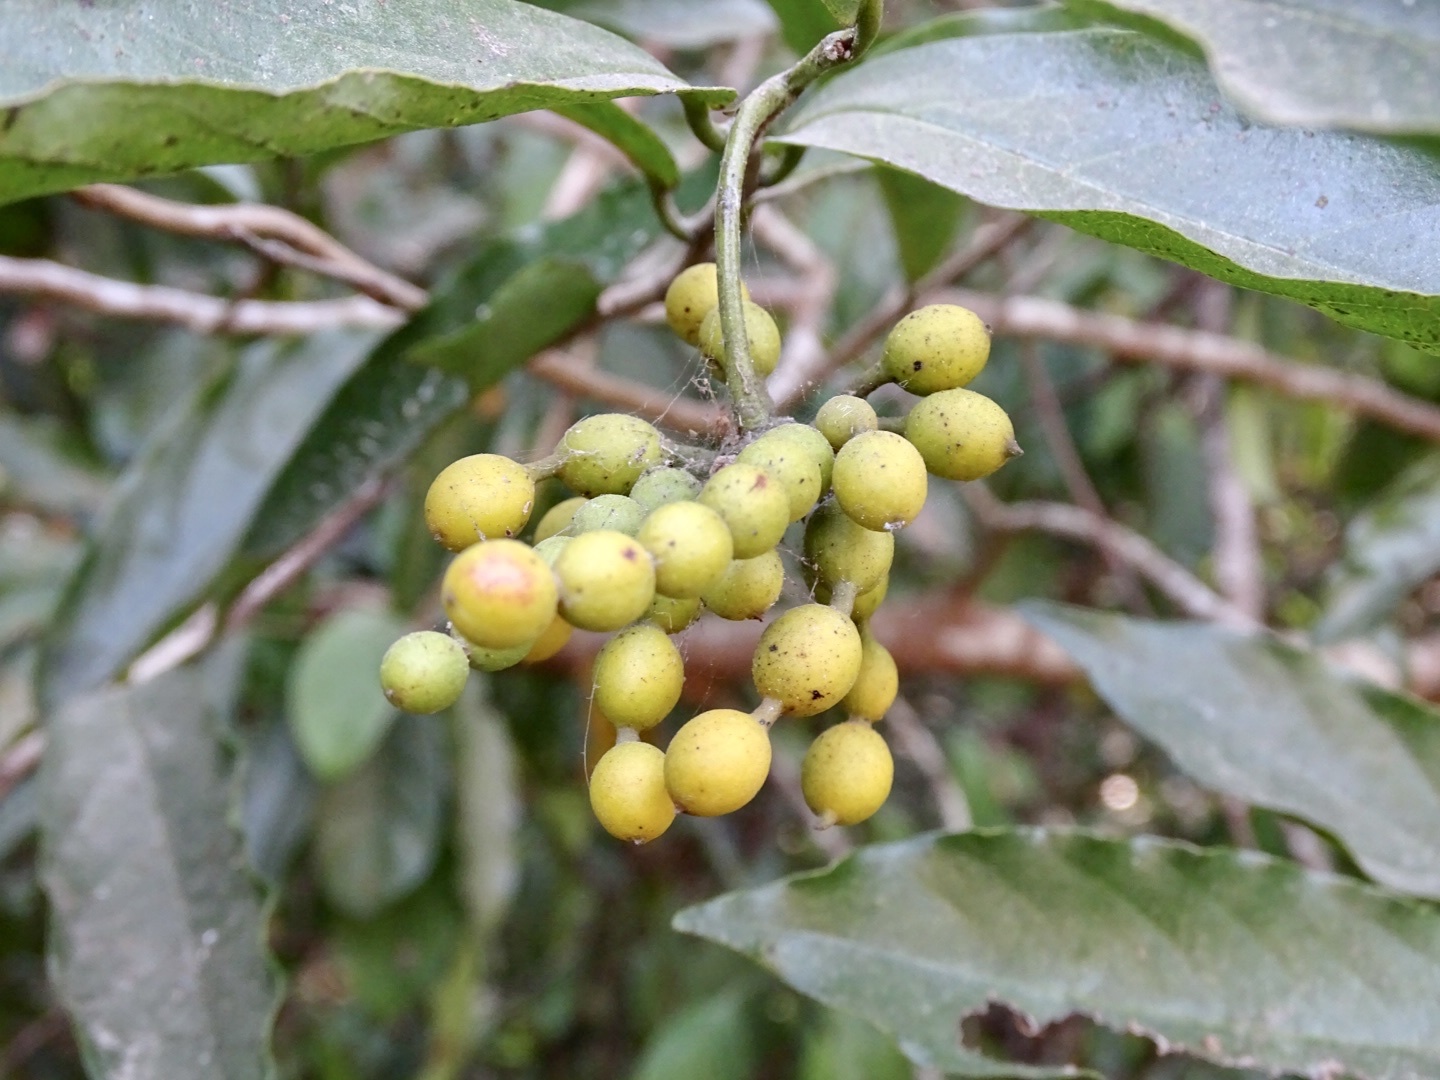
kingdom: Plantae
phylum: Tracheophyta
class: Magnoliopsida
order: Magnoliales
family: Annonaceae
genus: Desmos
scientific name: Desmos chinensis
